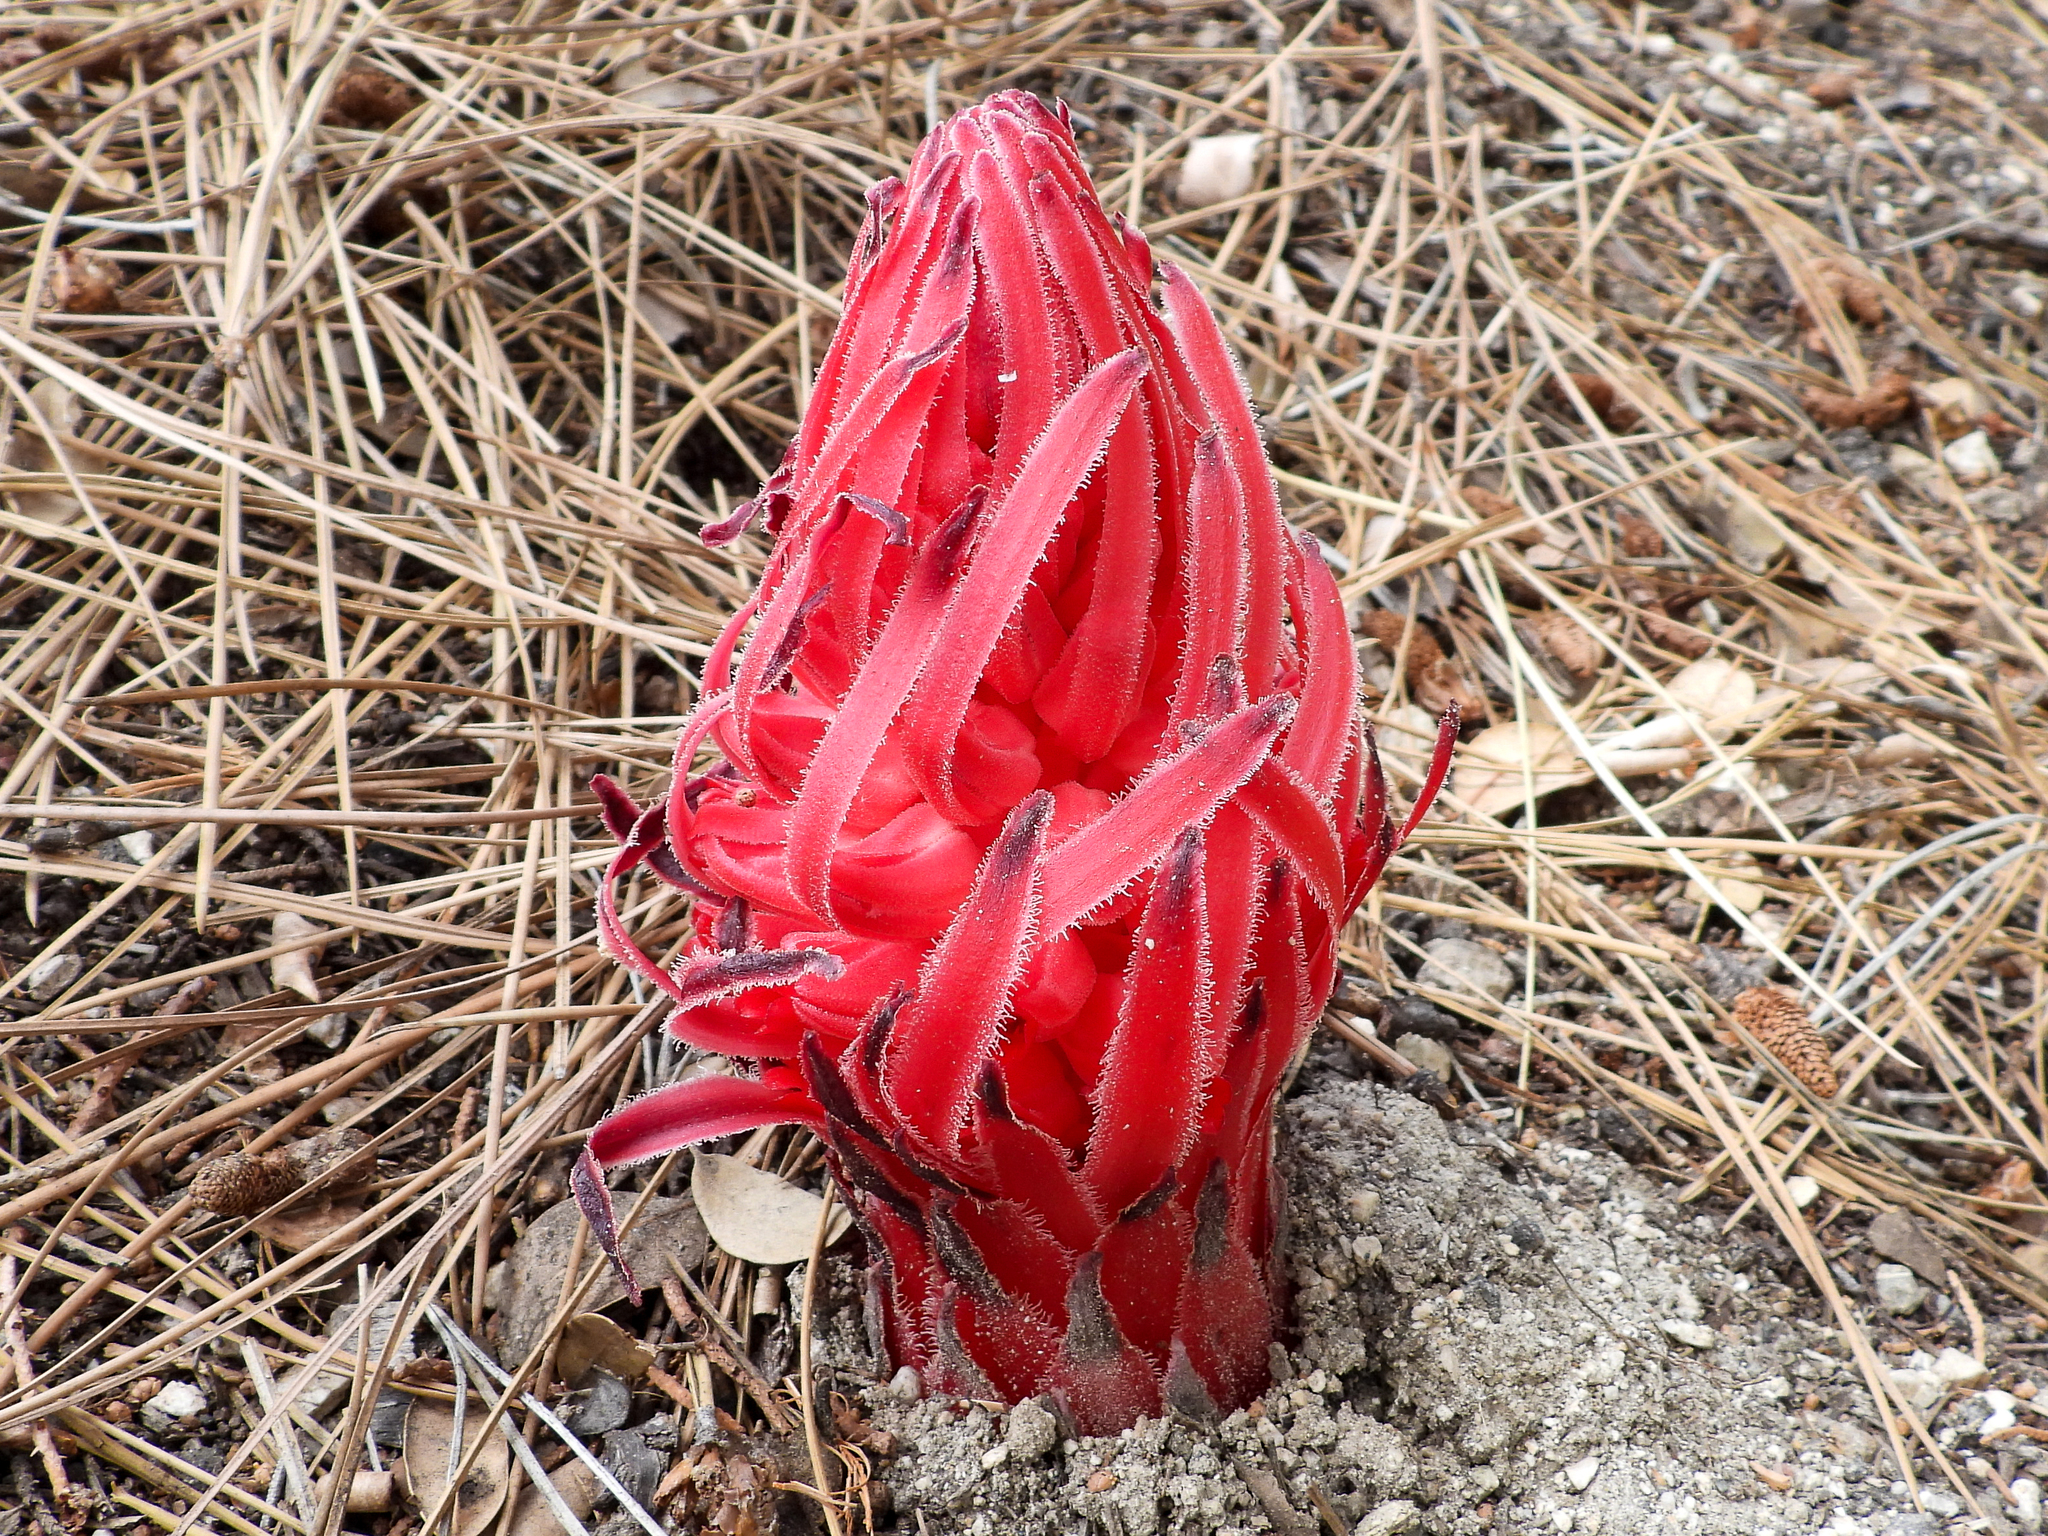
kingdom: Plantae
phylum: Tracheophyta
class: Magnoliopsida
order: Ericales
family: Ericaceae
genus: Sarcodes
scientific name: Sarcodes sanguinea
